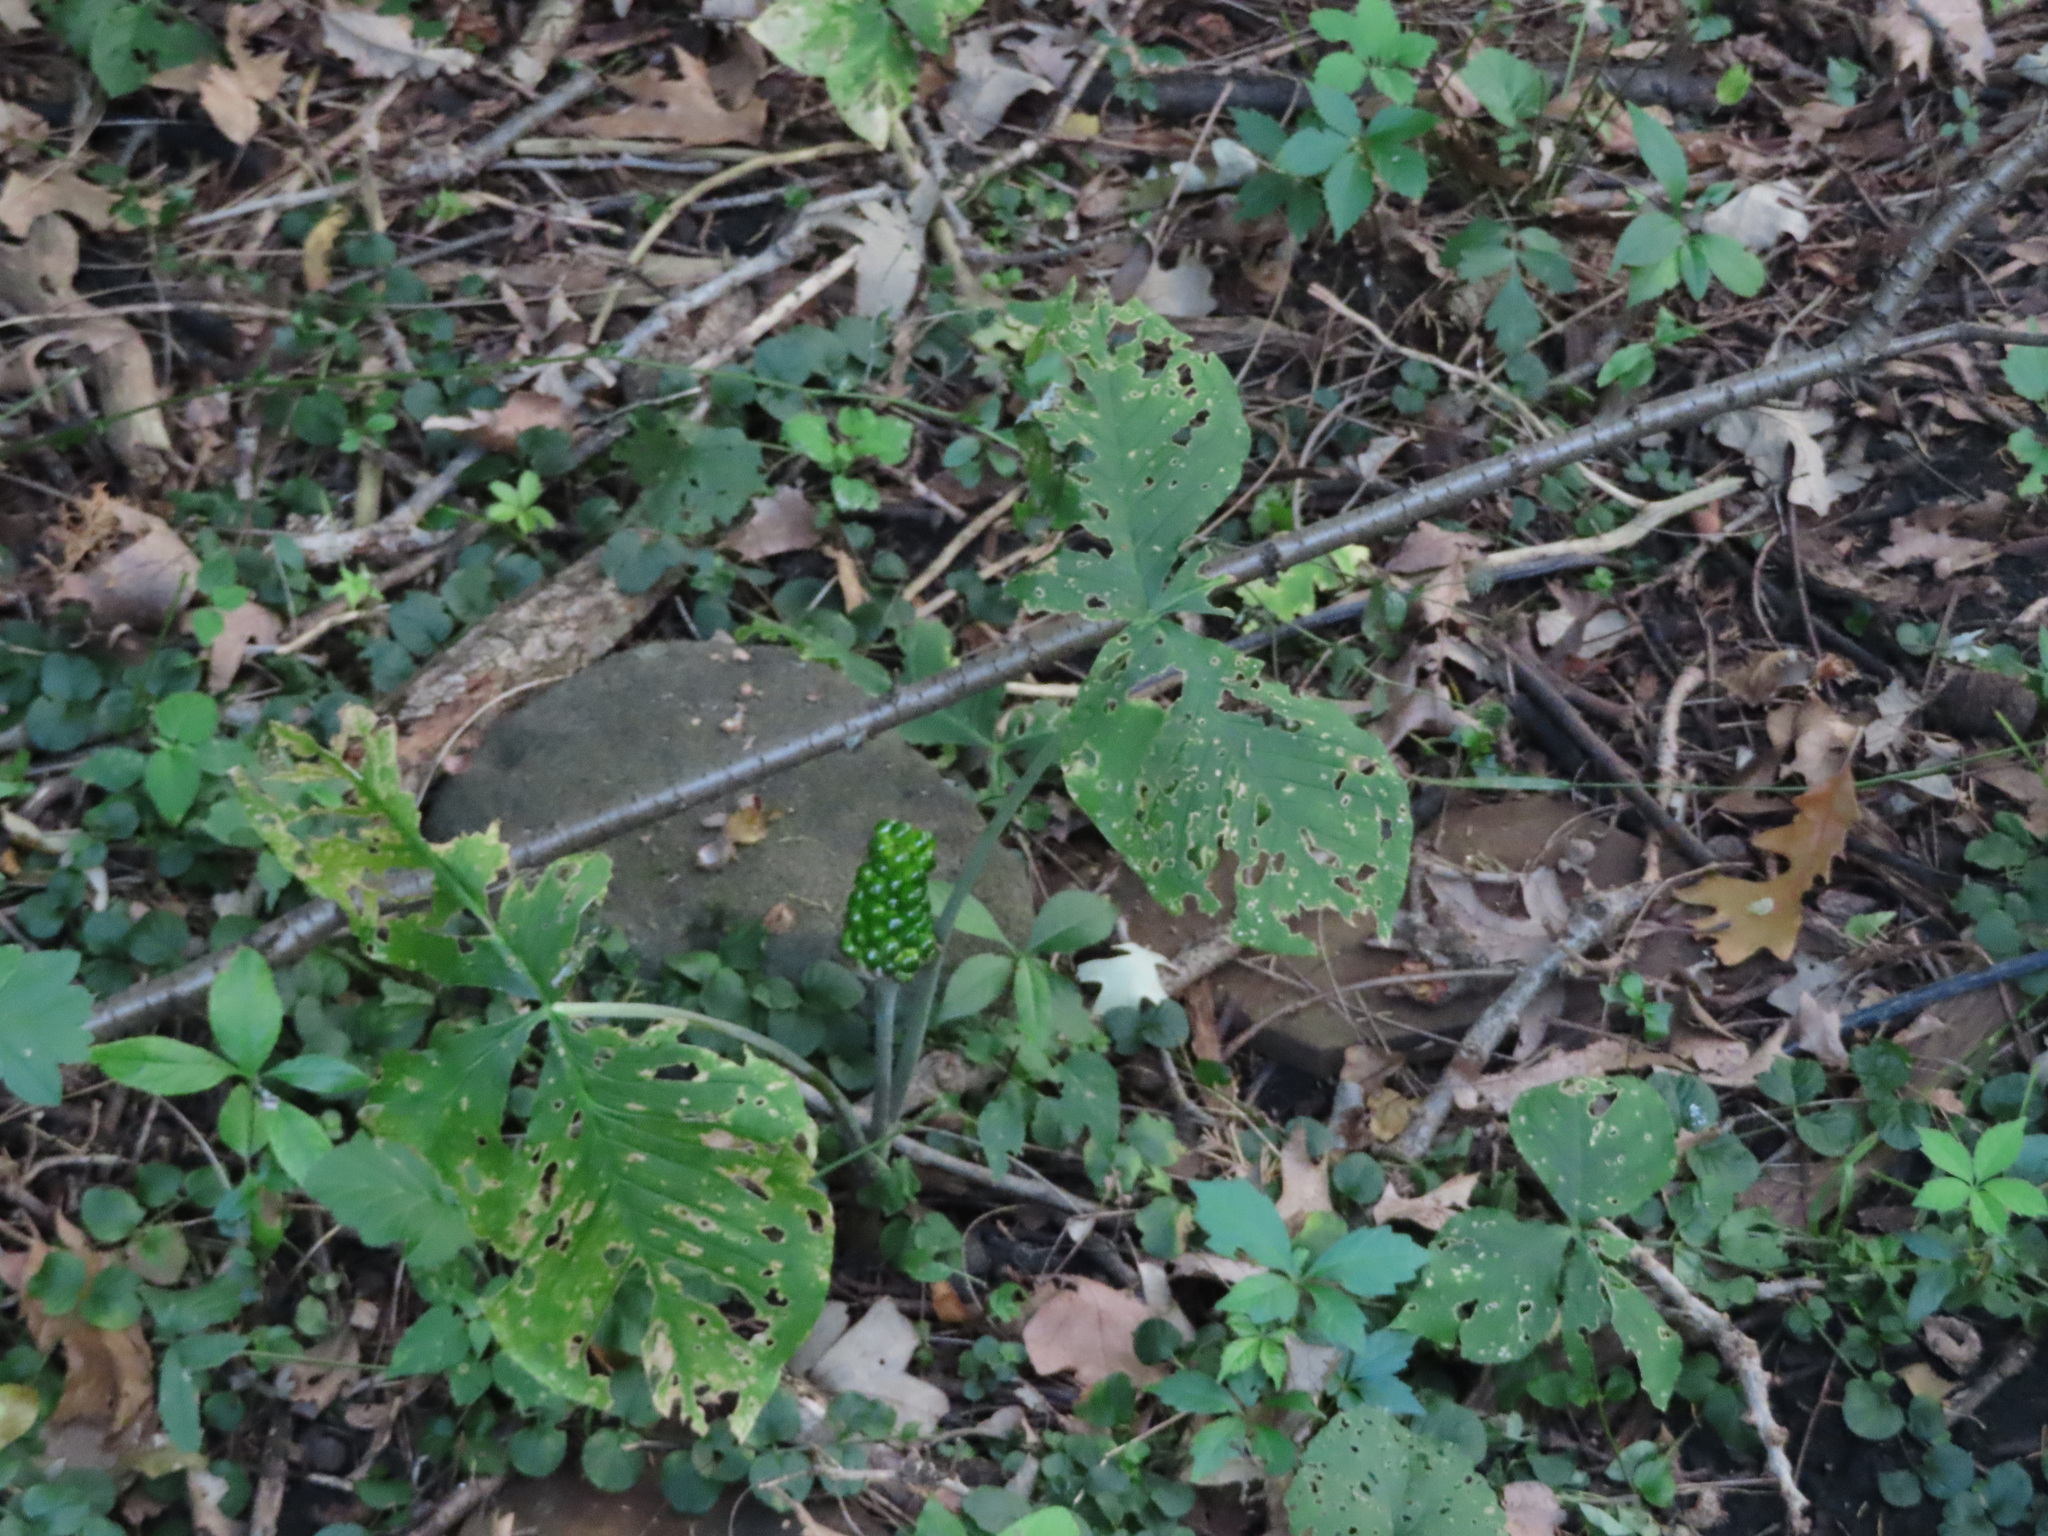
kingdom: Plantae
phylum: Tracheophyta
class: Liliopsida
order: Alismatales
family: Araceae
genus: Arisaema
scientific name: Arisaema triphyllum
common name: Jack-in-the-pulpit
